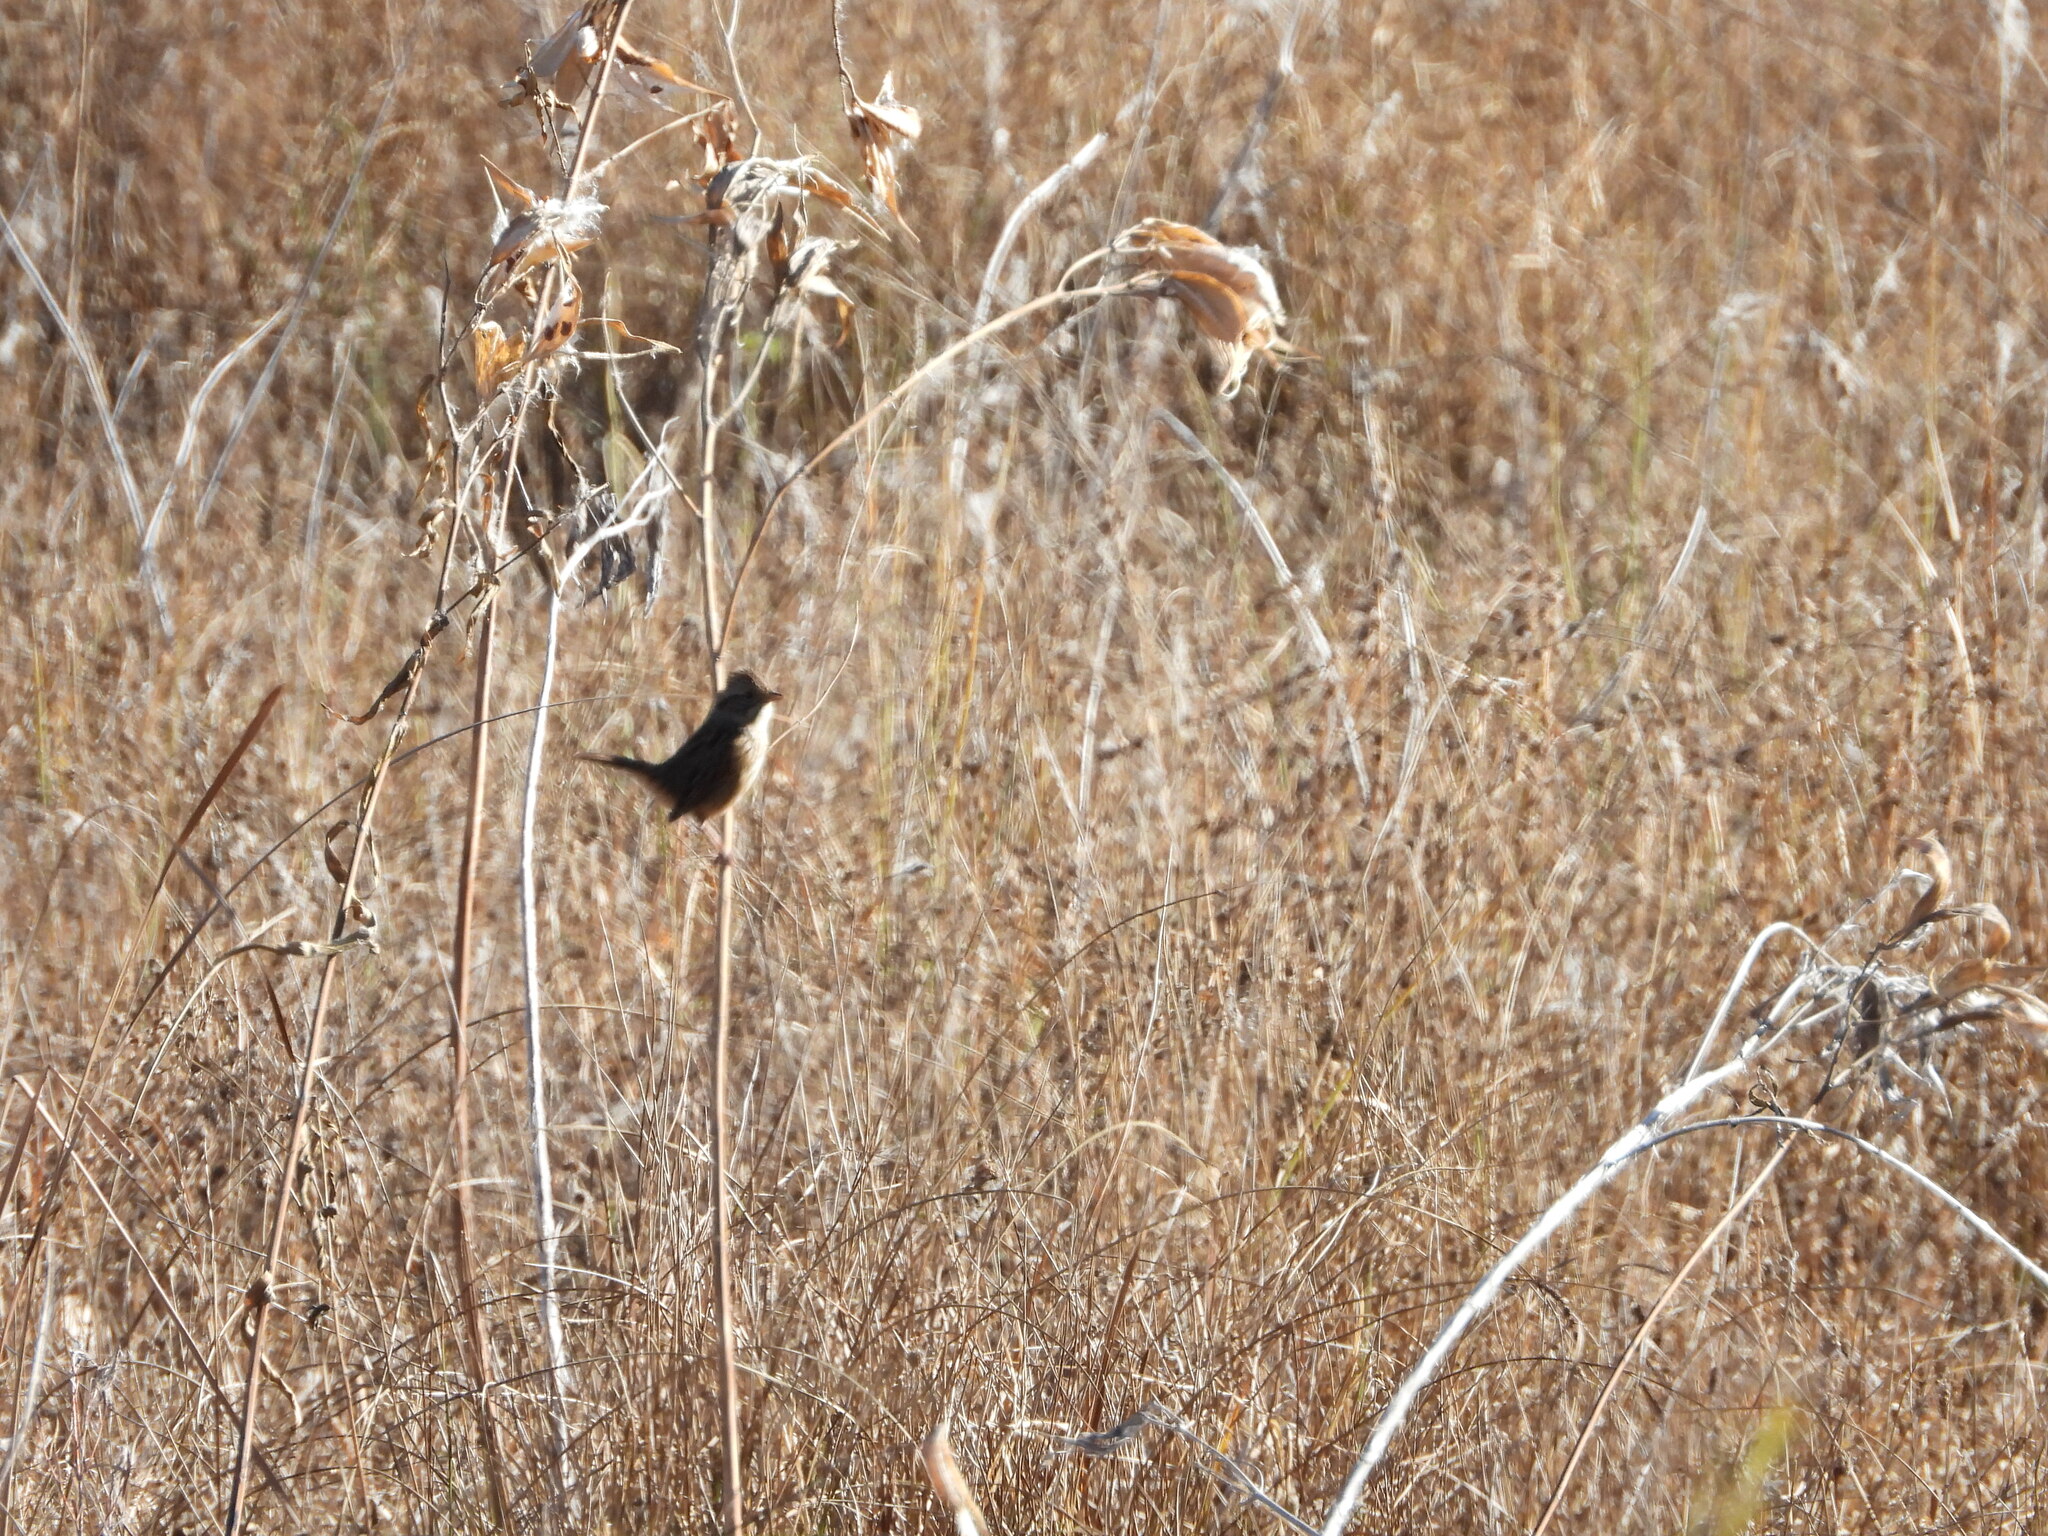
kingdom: Animalia
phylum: Chordata
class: Aves
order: Passeriformes
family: Passerellidae
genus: Melospiza
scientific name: Melospiza georgiana
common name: Swamp sparrow
